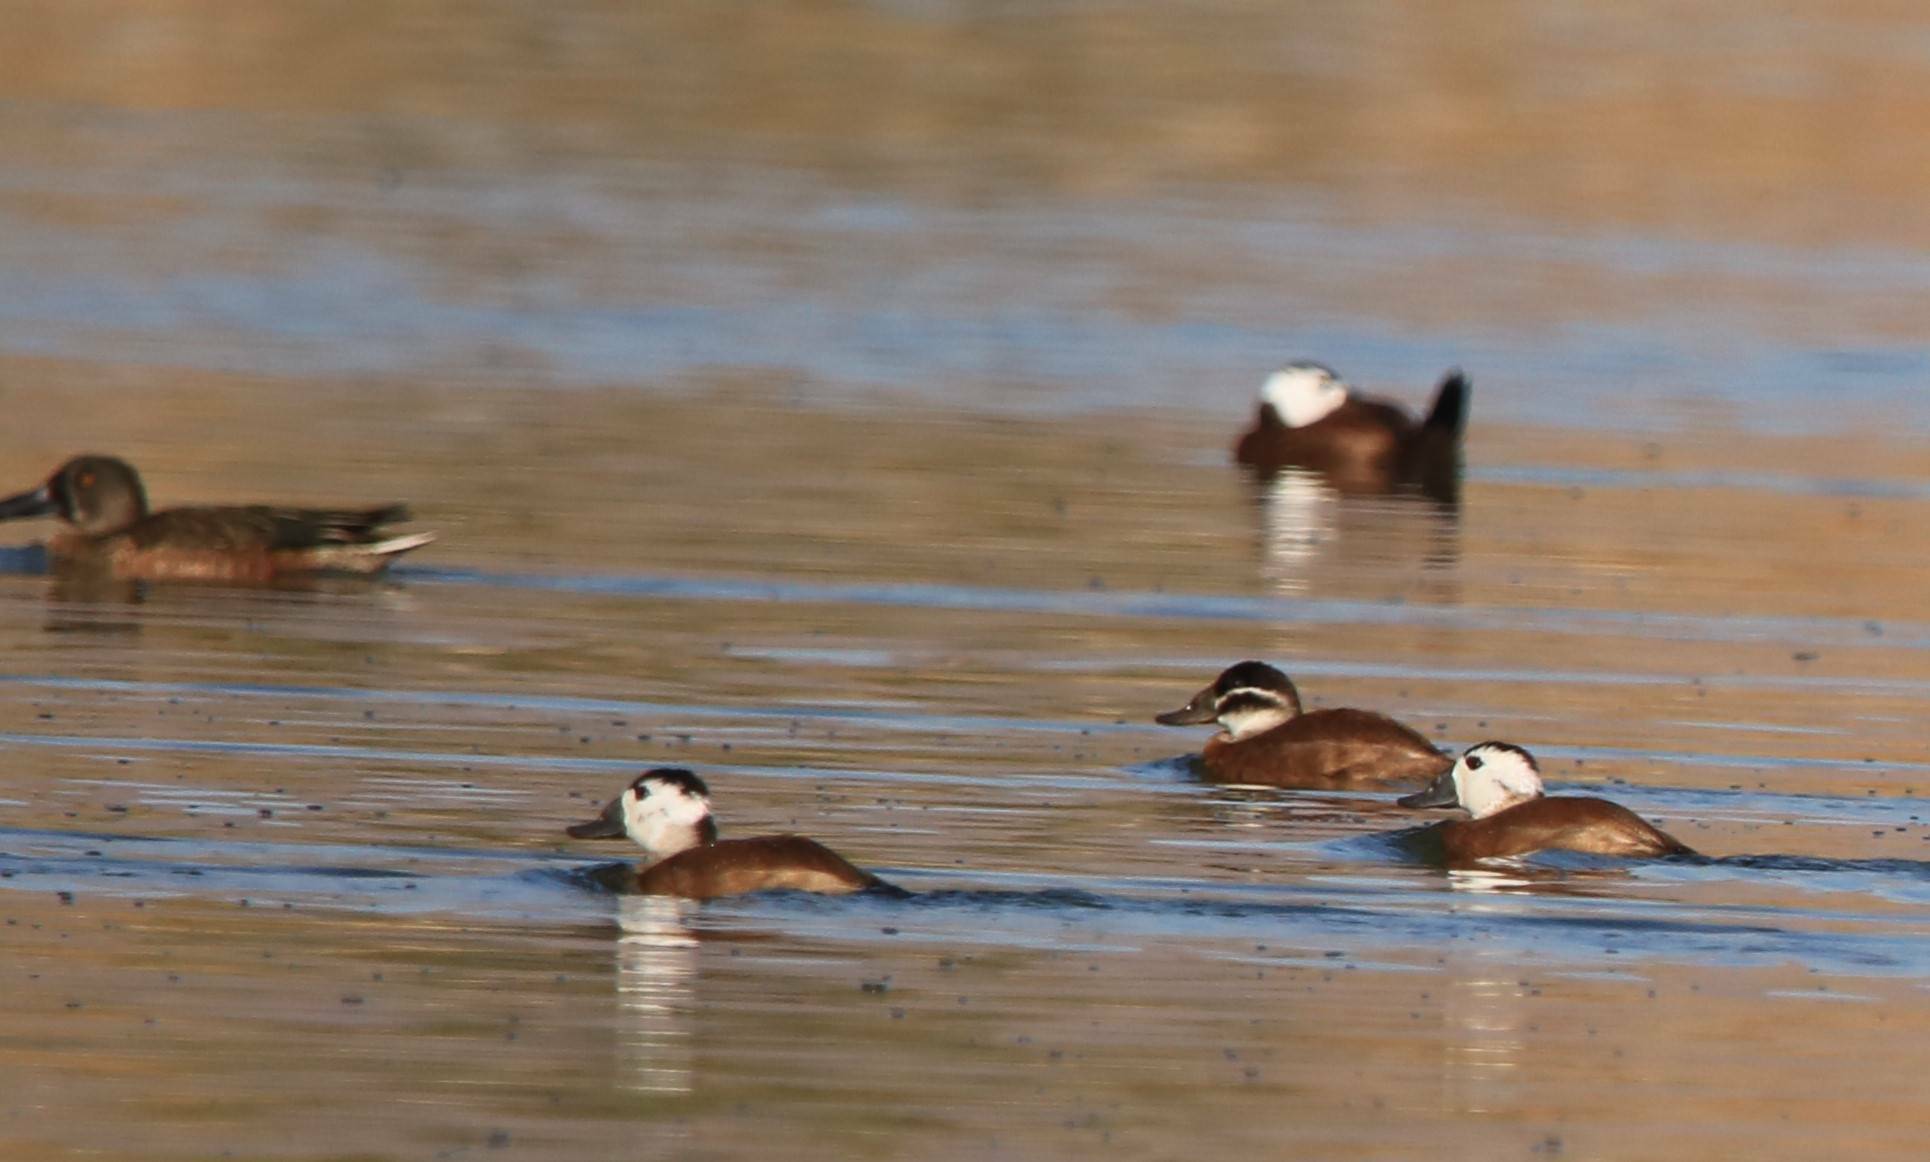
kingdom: Animalia
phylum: Chordata
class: Aves
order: Anseriformes
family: Anatidae
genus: Oxyura
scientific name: Oxyura leucocephala
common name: White-headed duck
